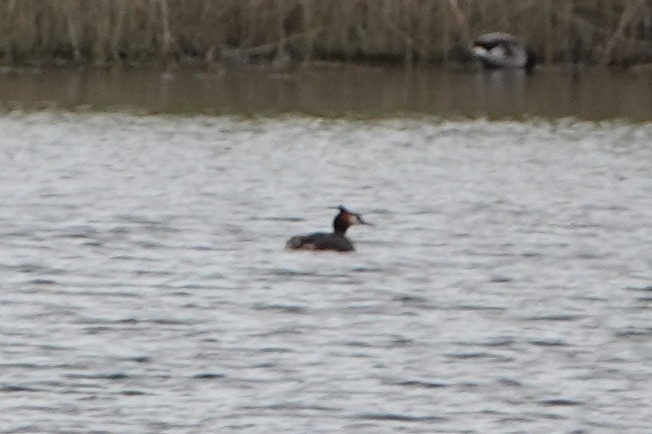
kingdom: Animalia
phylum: Chordata
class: Aves
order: Podicipediformes
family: Podicipedidae
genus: Podiceps
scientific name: Podiceps cristatus
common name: Great crested grebe
